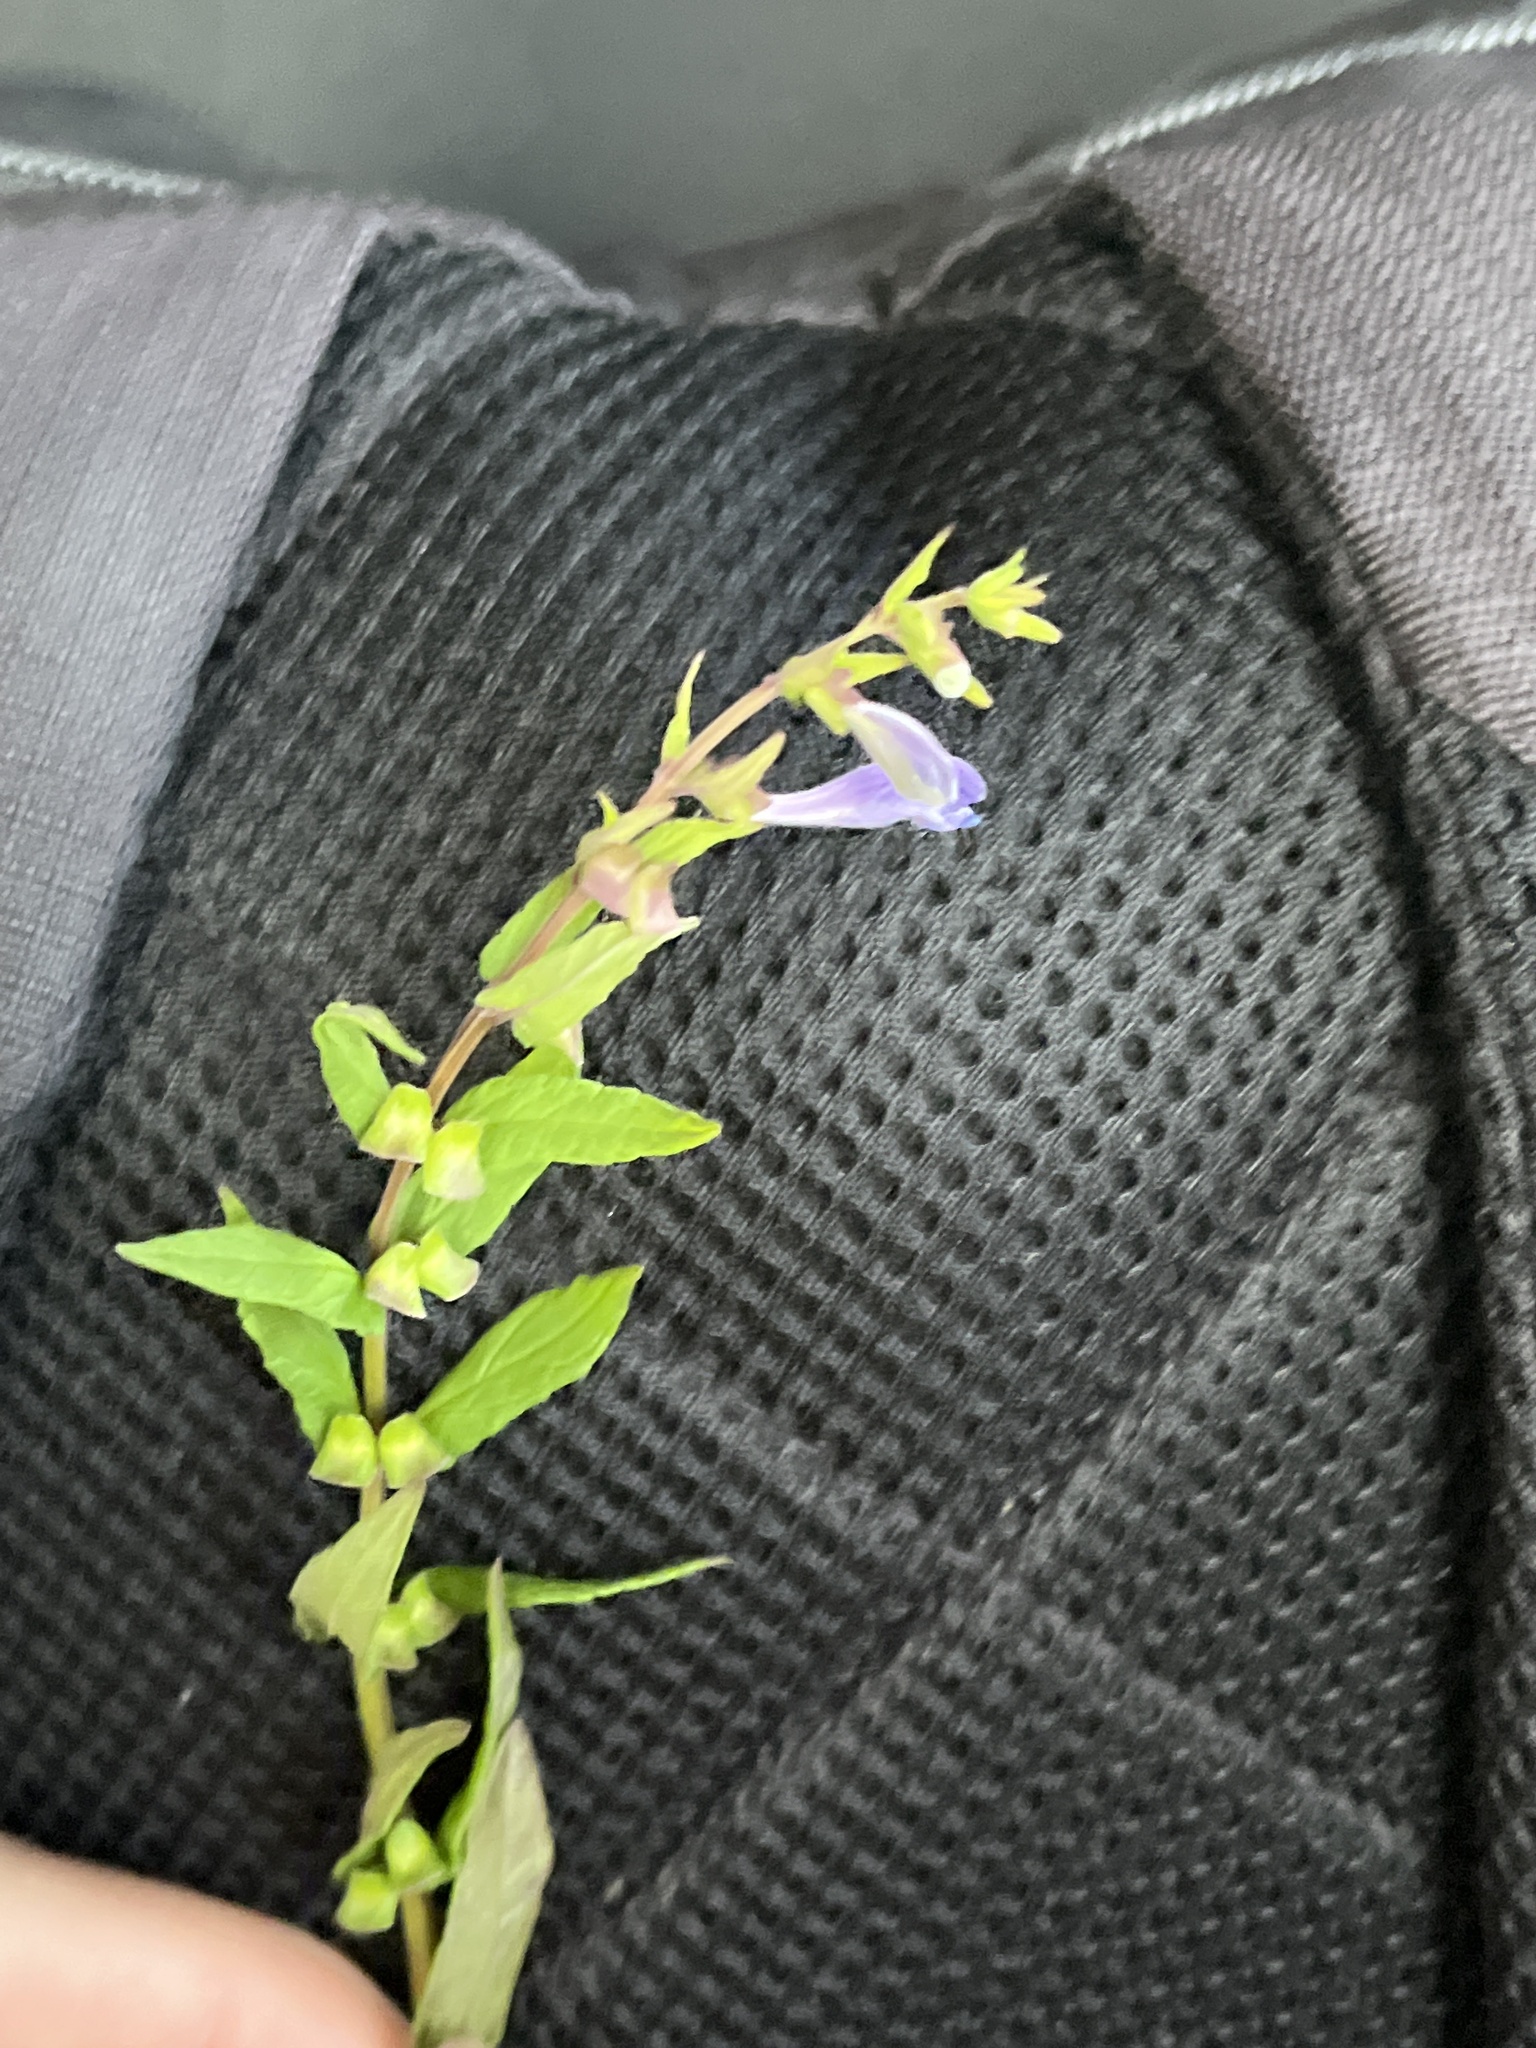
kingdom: Plantae
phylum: Tracheophyta
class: Magnoliopsida
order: Lamiales
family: Lamiaceae
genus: Scutellaria
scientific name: Scutellaria galericulata
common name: Skullcap
